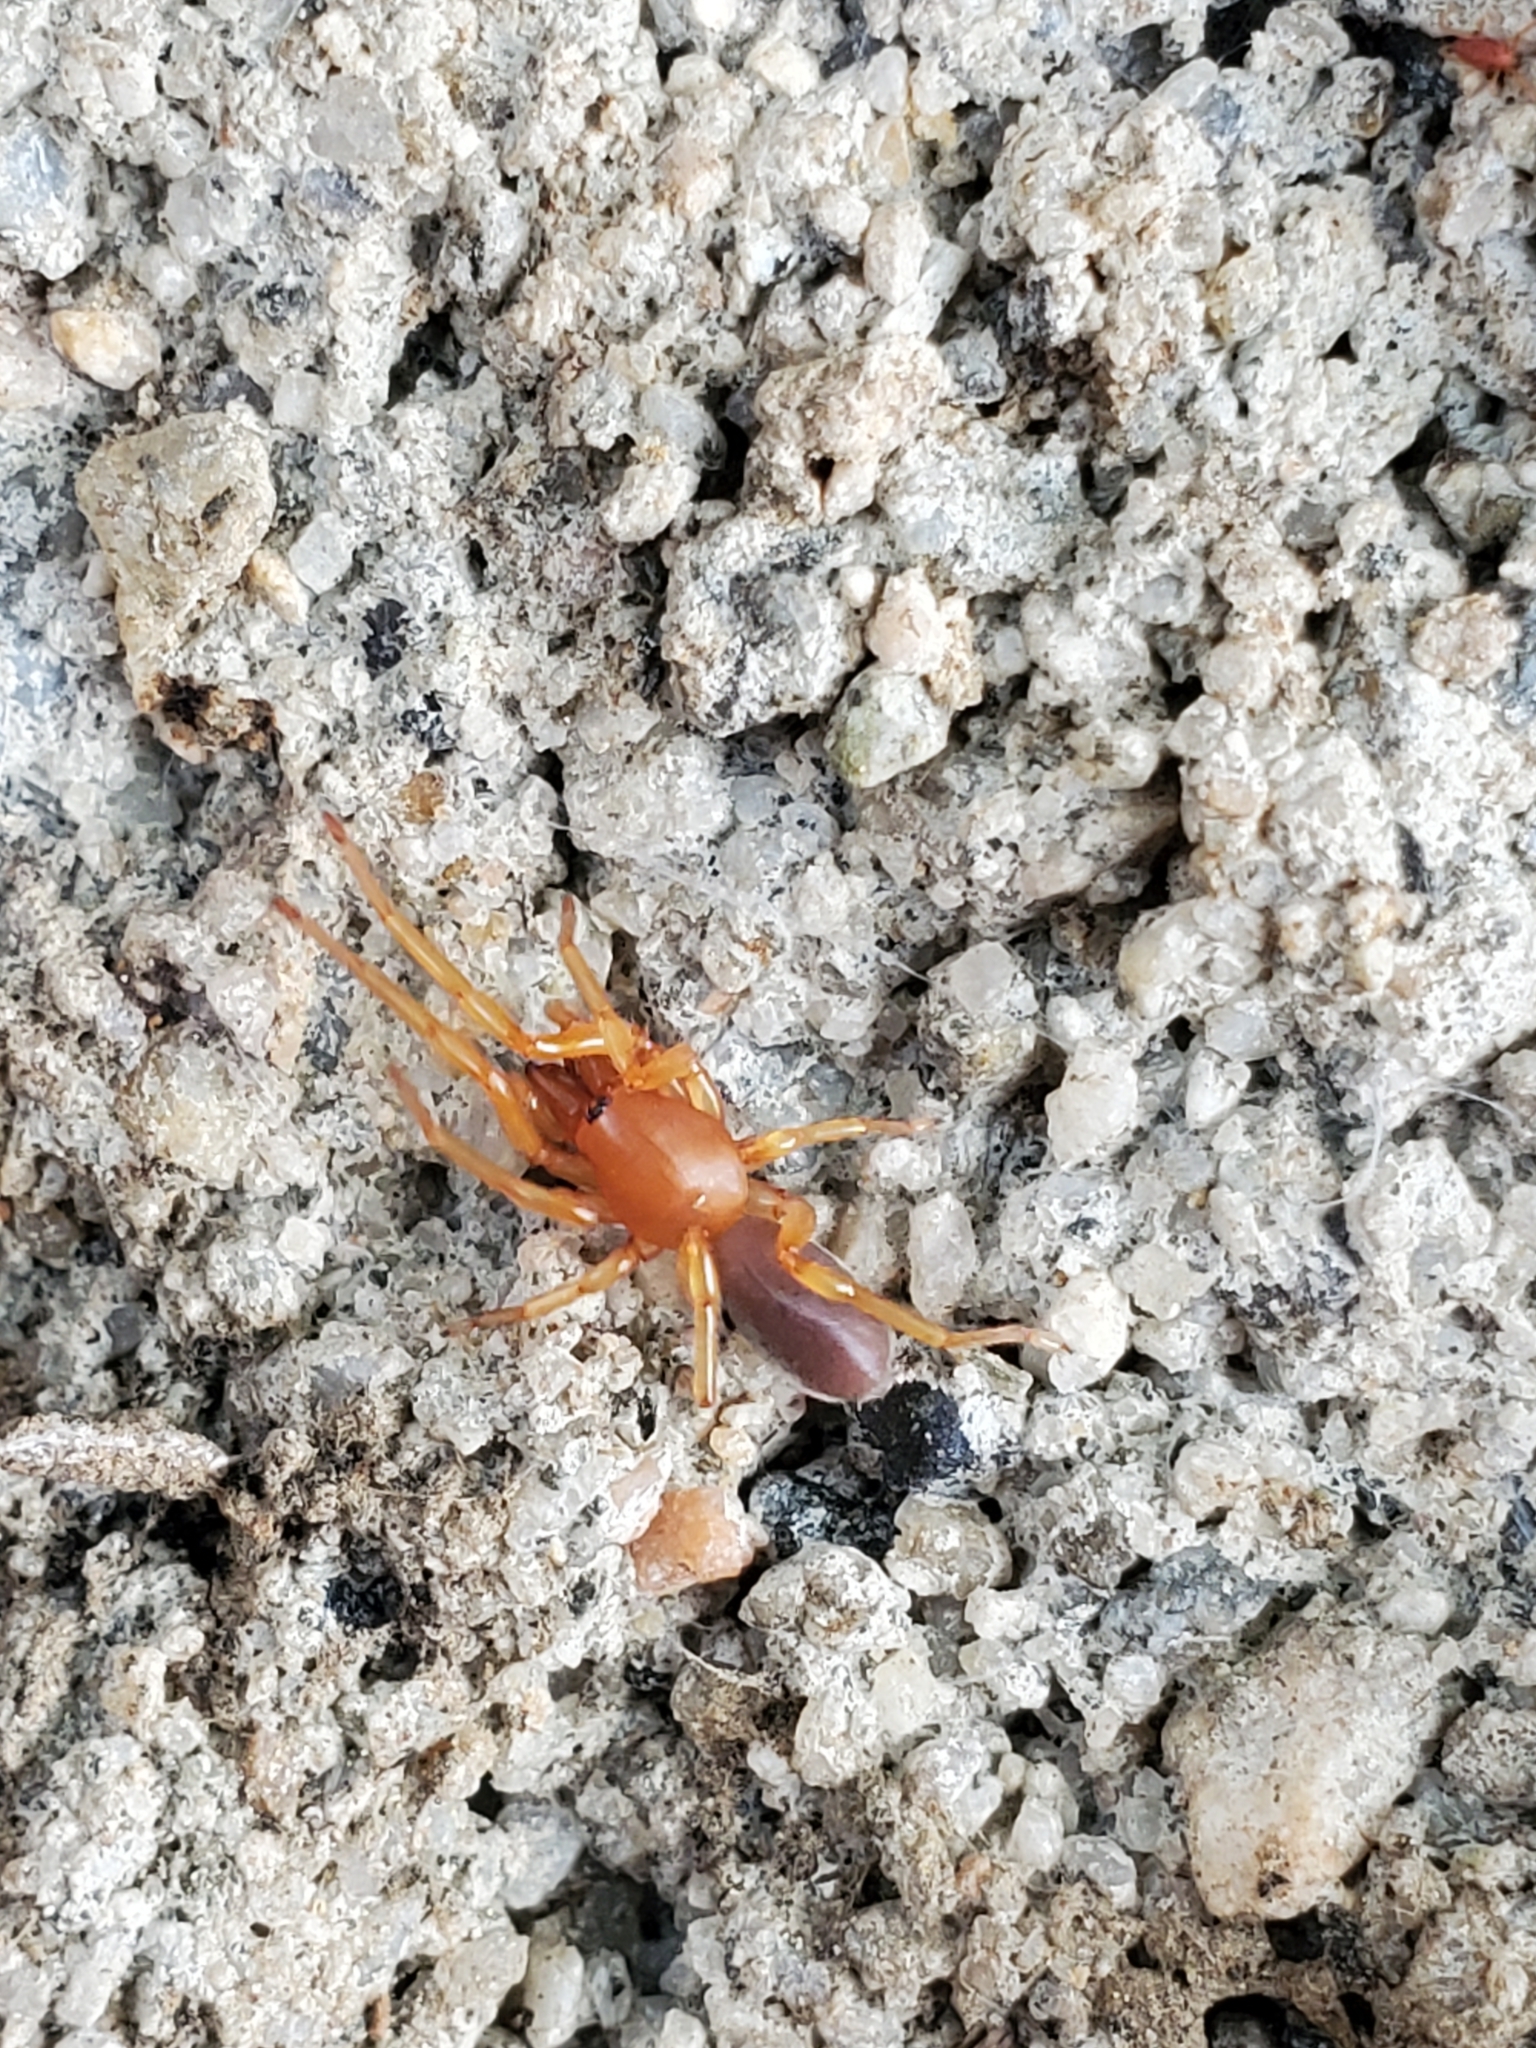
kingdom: Animalia
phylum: Arthropoda
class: Arachnida
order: Araneae
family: Dysderidae
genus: Dysdera
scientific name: Dysdera crocata
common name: Woodlouse spider
